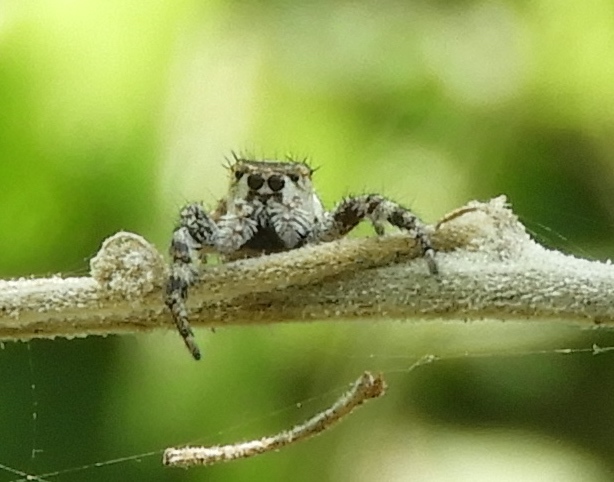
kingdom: Animalia
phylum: Arthropoda
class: Arachnida
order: Araneae
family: Salticidae
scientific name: Salticidae
